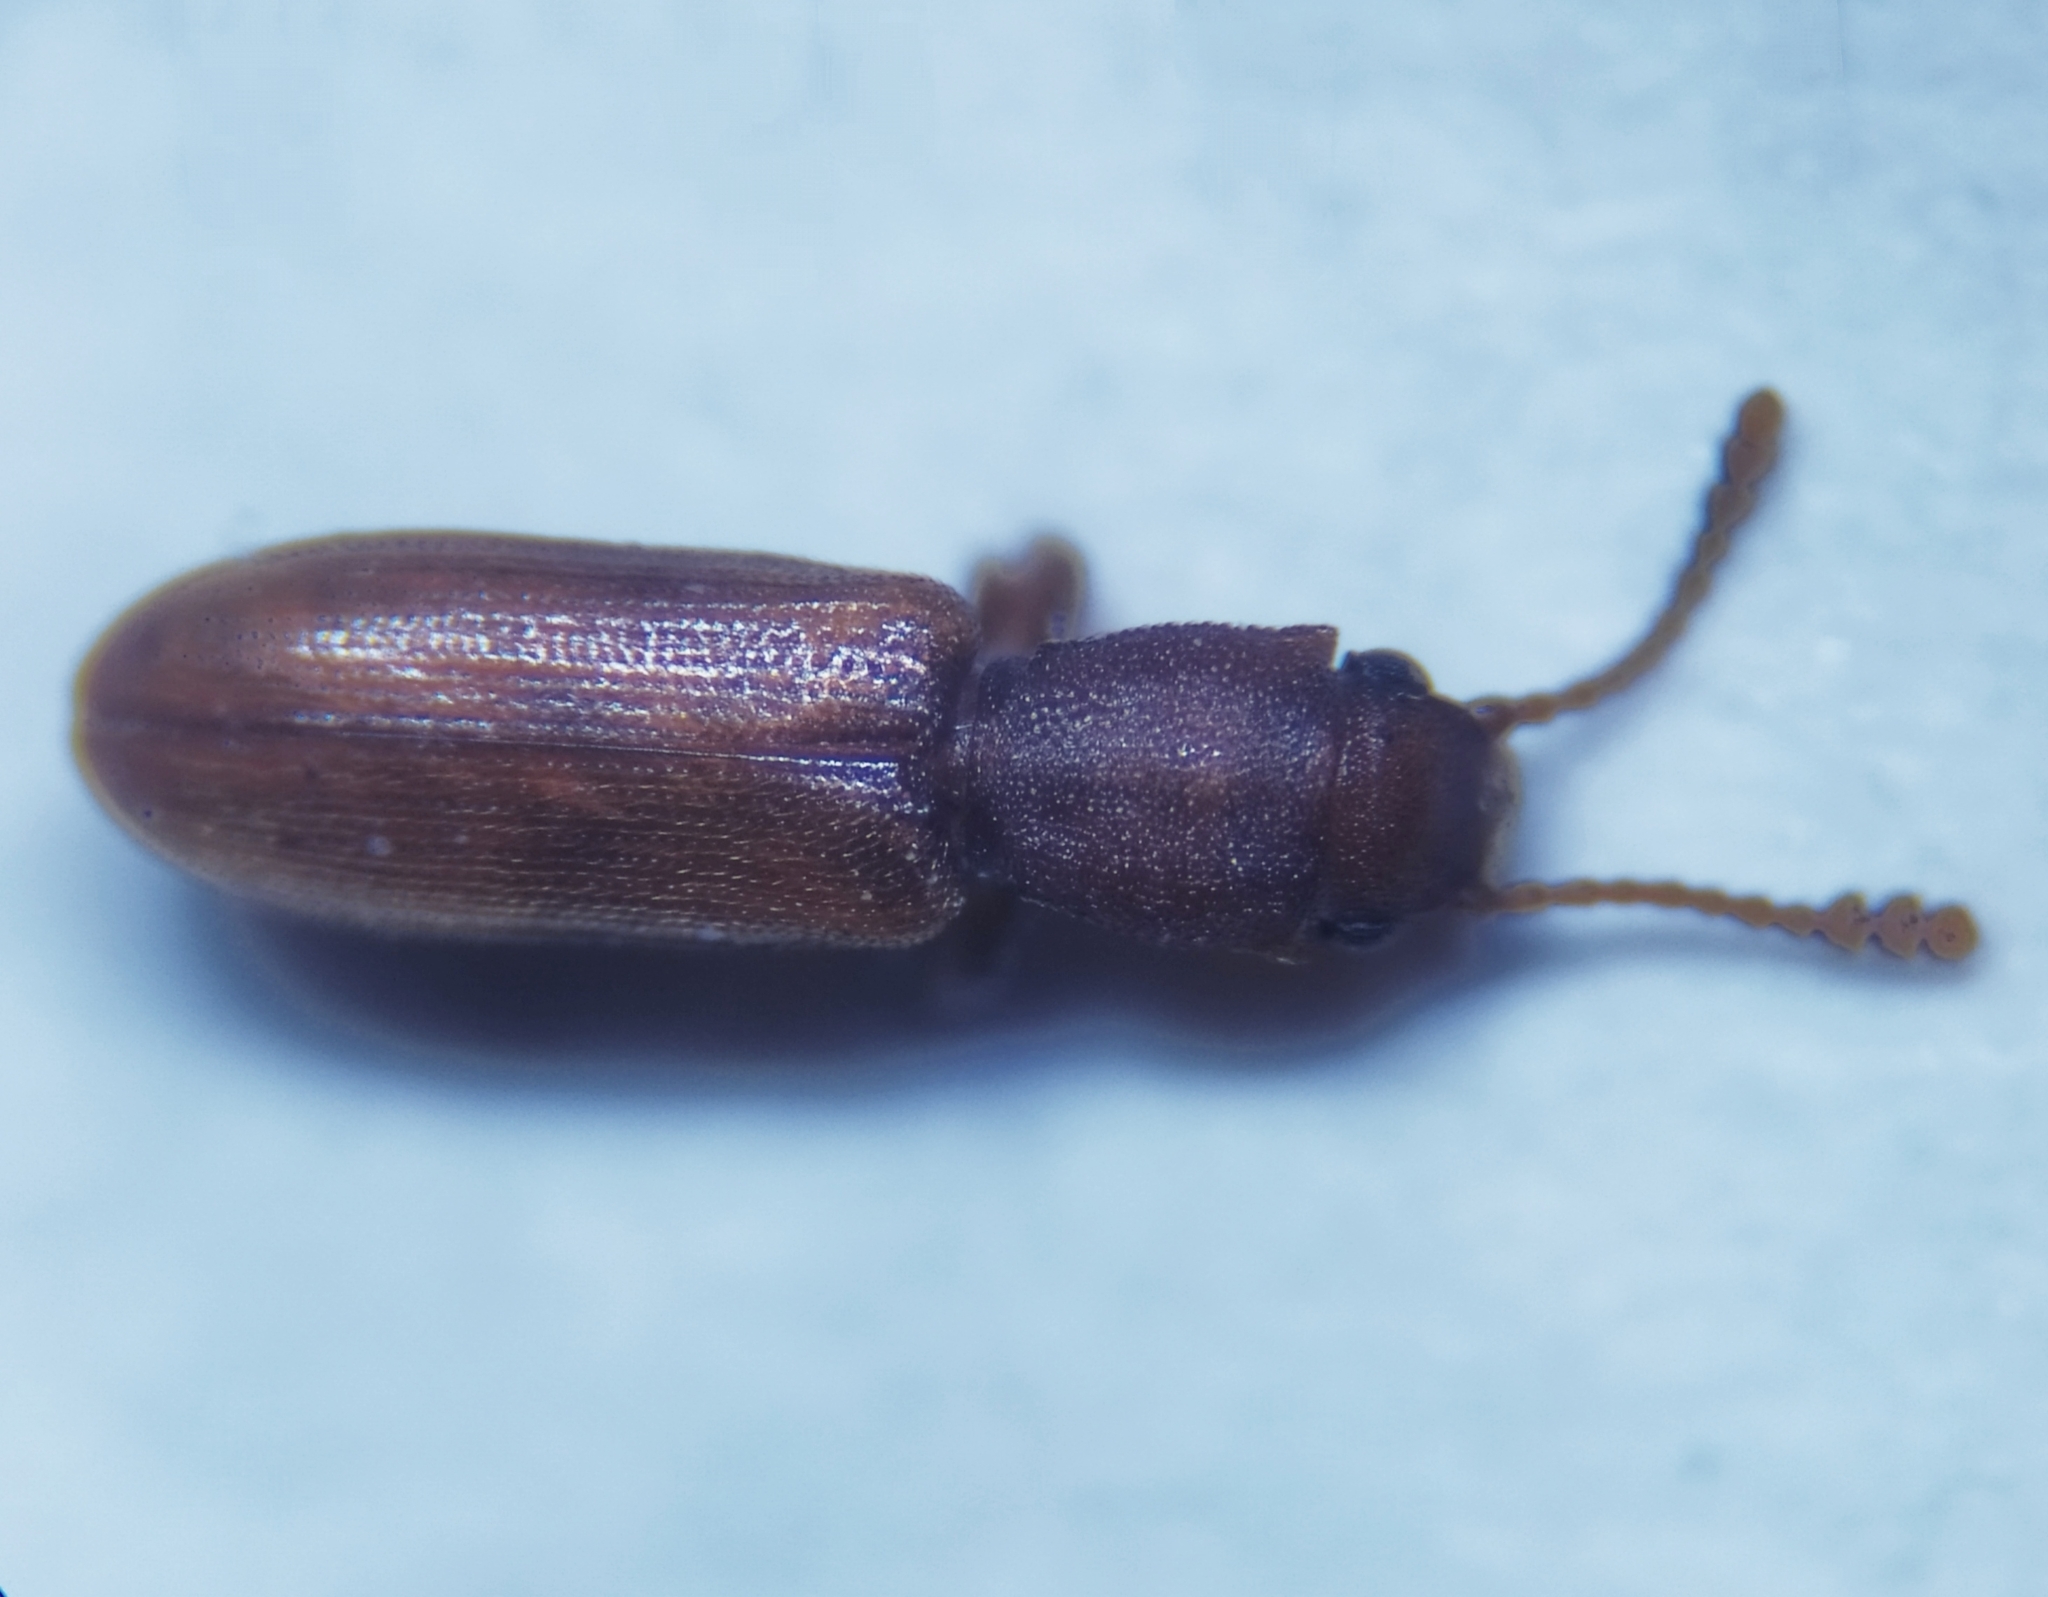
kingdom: Animalia
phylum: Arthropoda
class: Insecta
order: Coleoptera
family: Silvanidae
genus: Silvanus
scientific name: Silvanus unidentatus
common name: One-toothed silvan flat bark beetle
